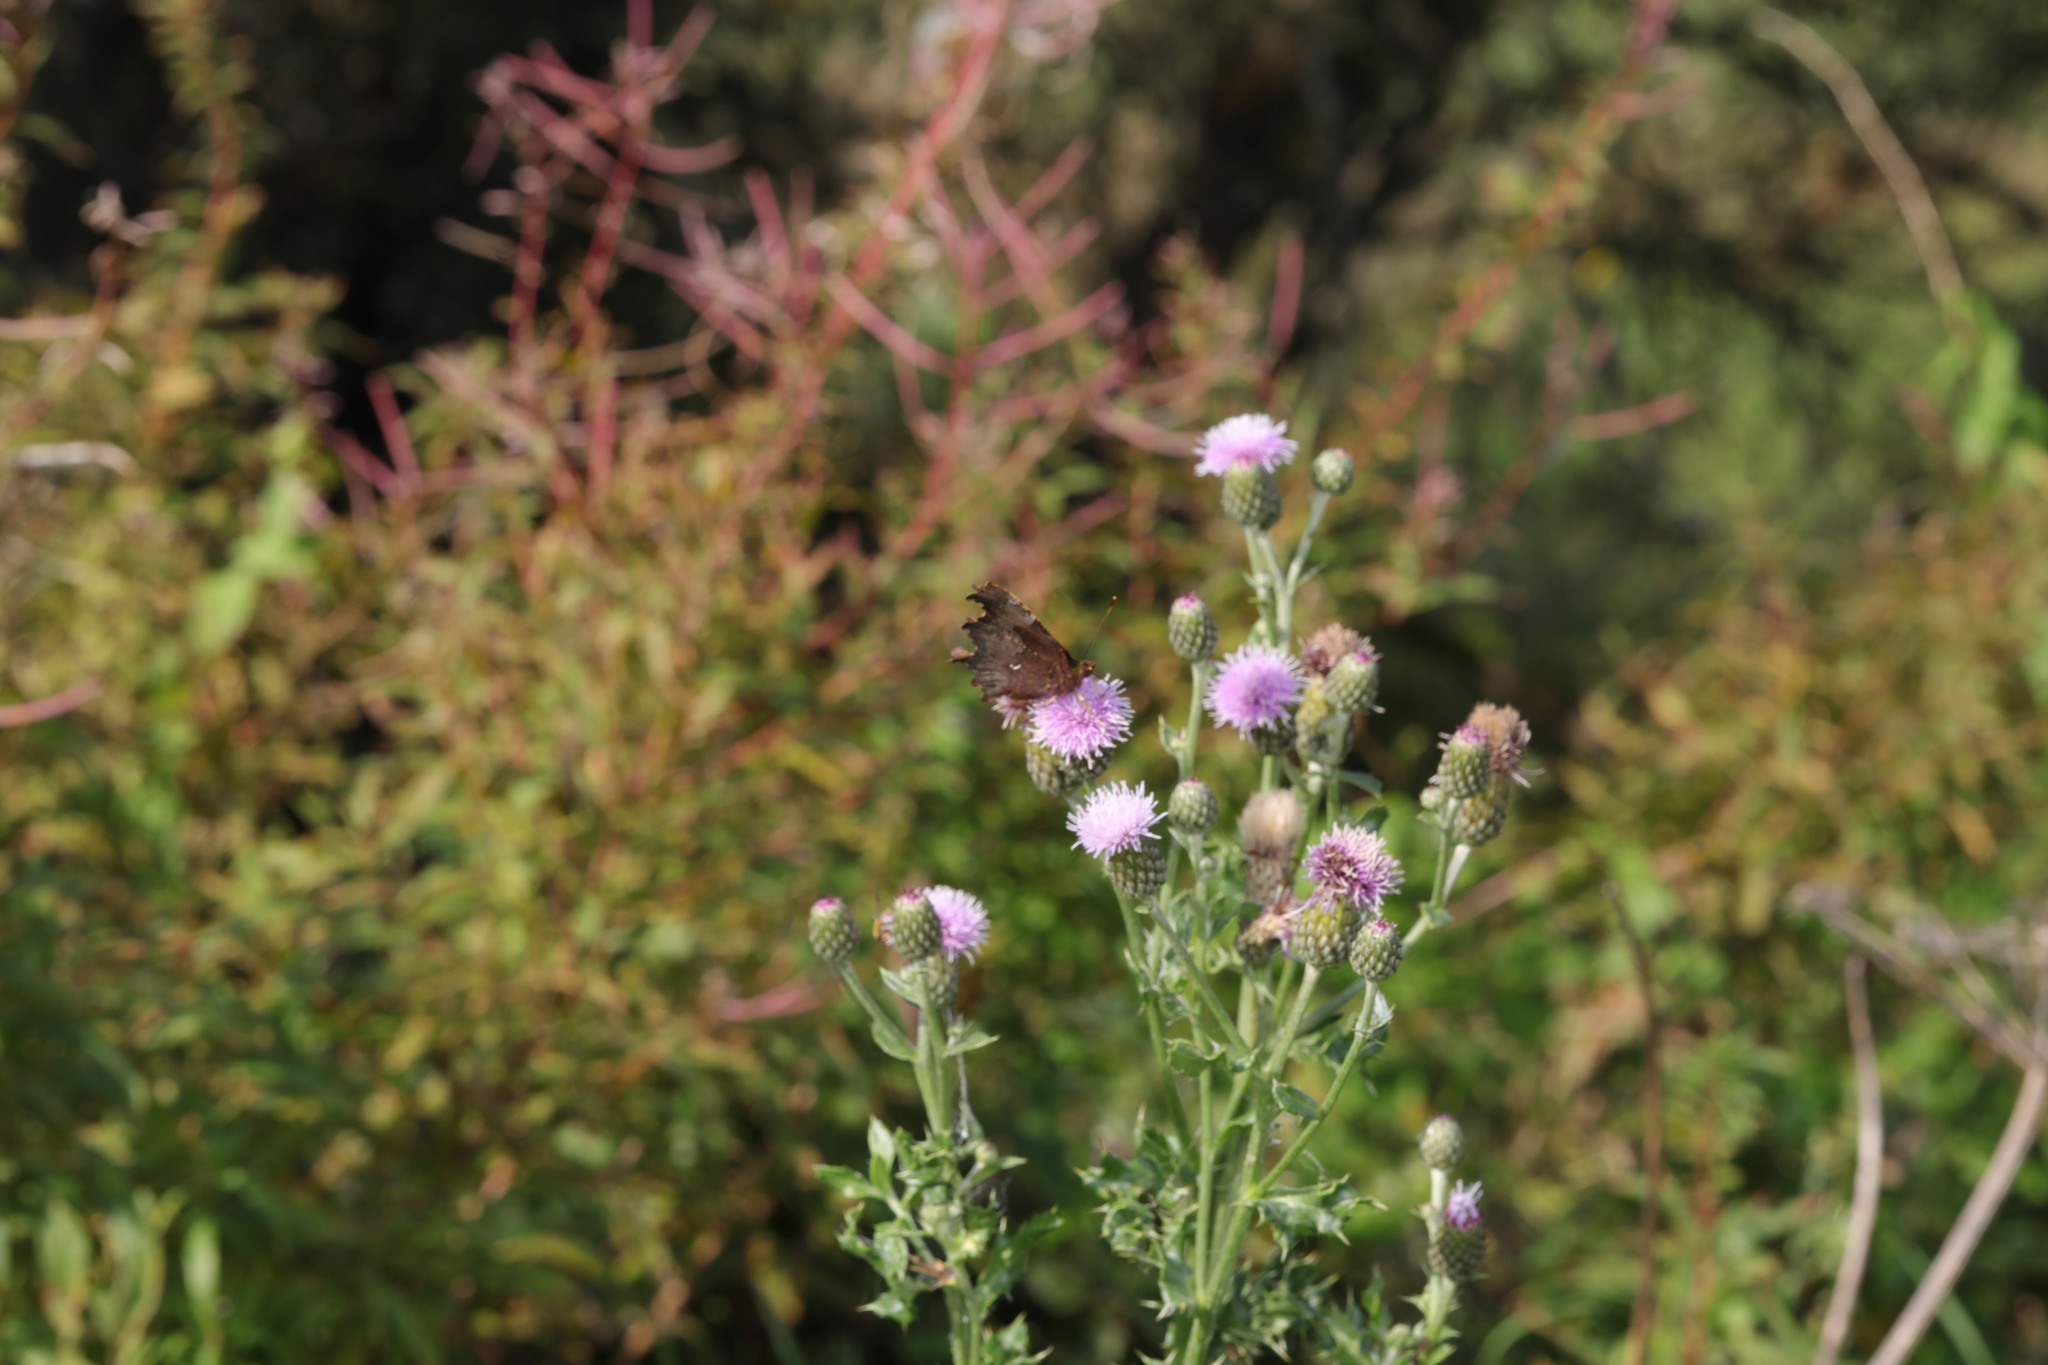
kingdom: Animalia
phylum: Arthropoda
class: Insecta
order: Lepidoptera
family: Nymphalidae
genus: Polygonia
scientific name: Polygonia c-album
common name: Comma
